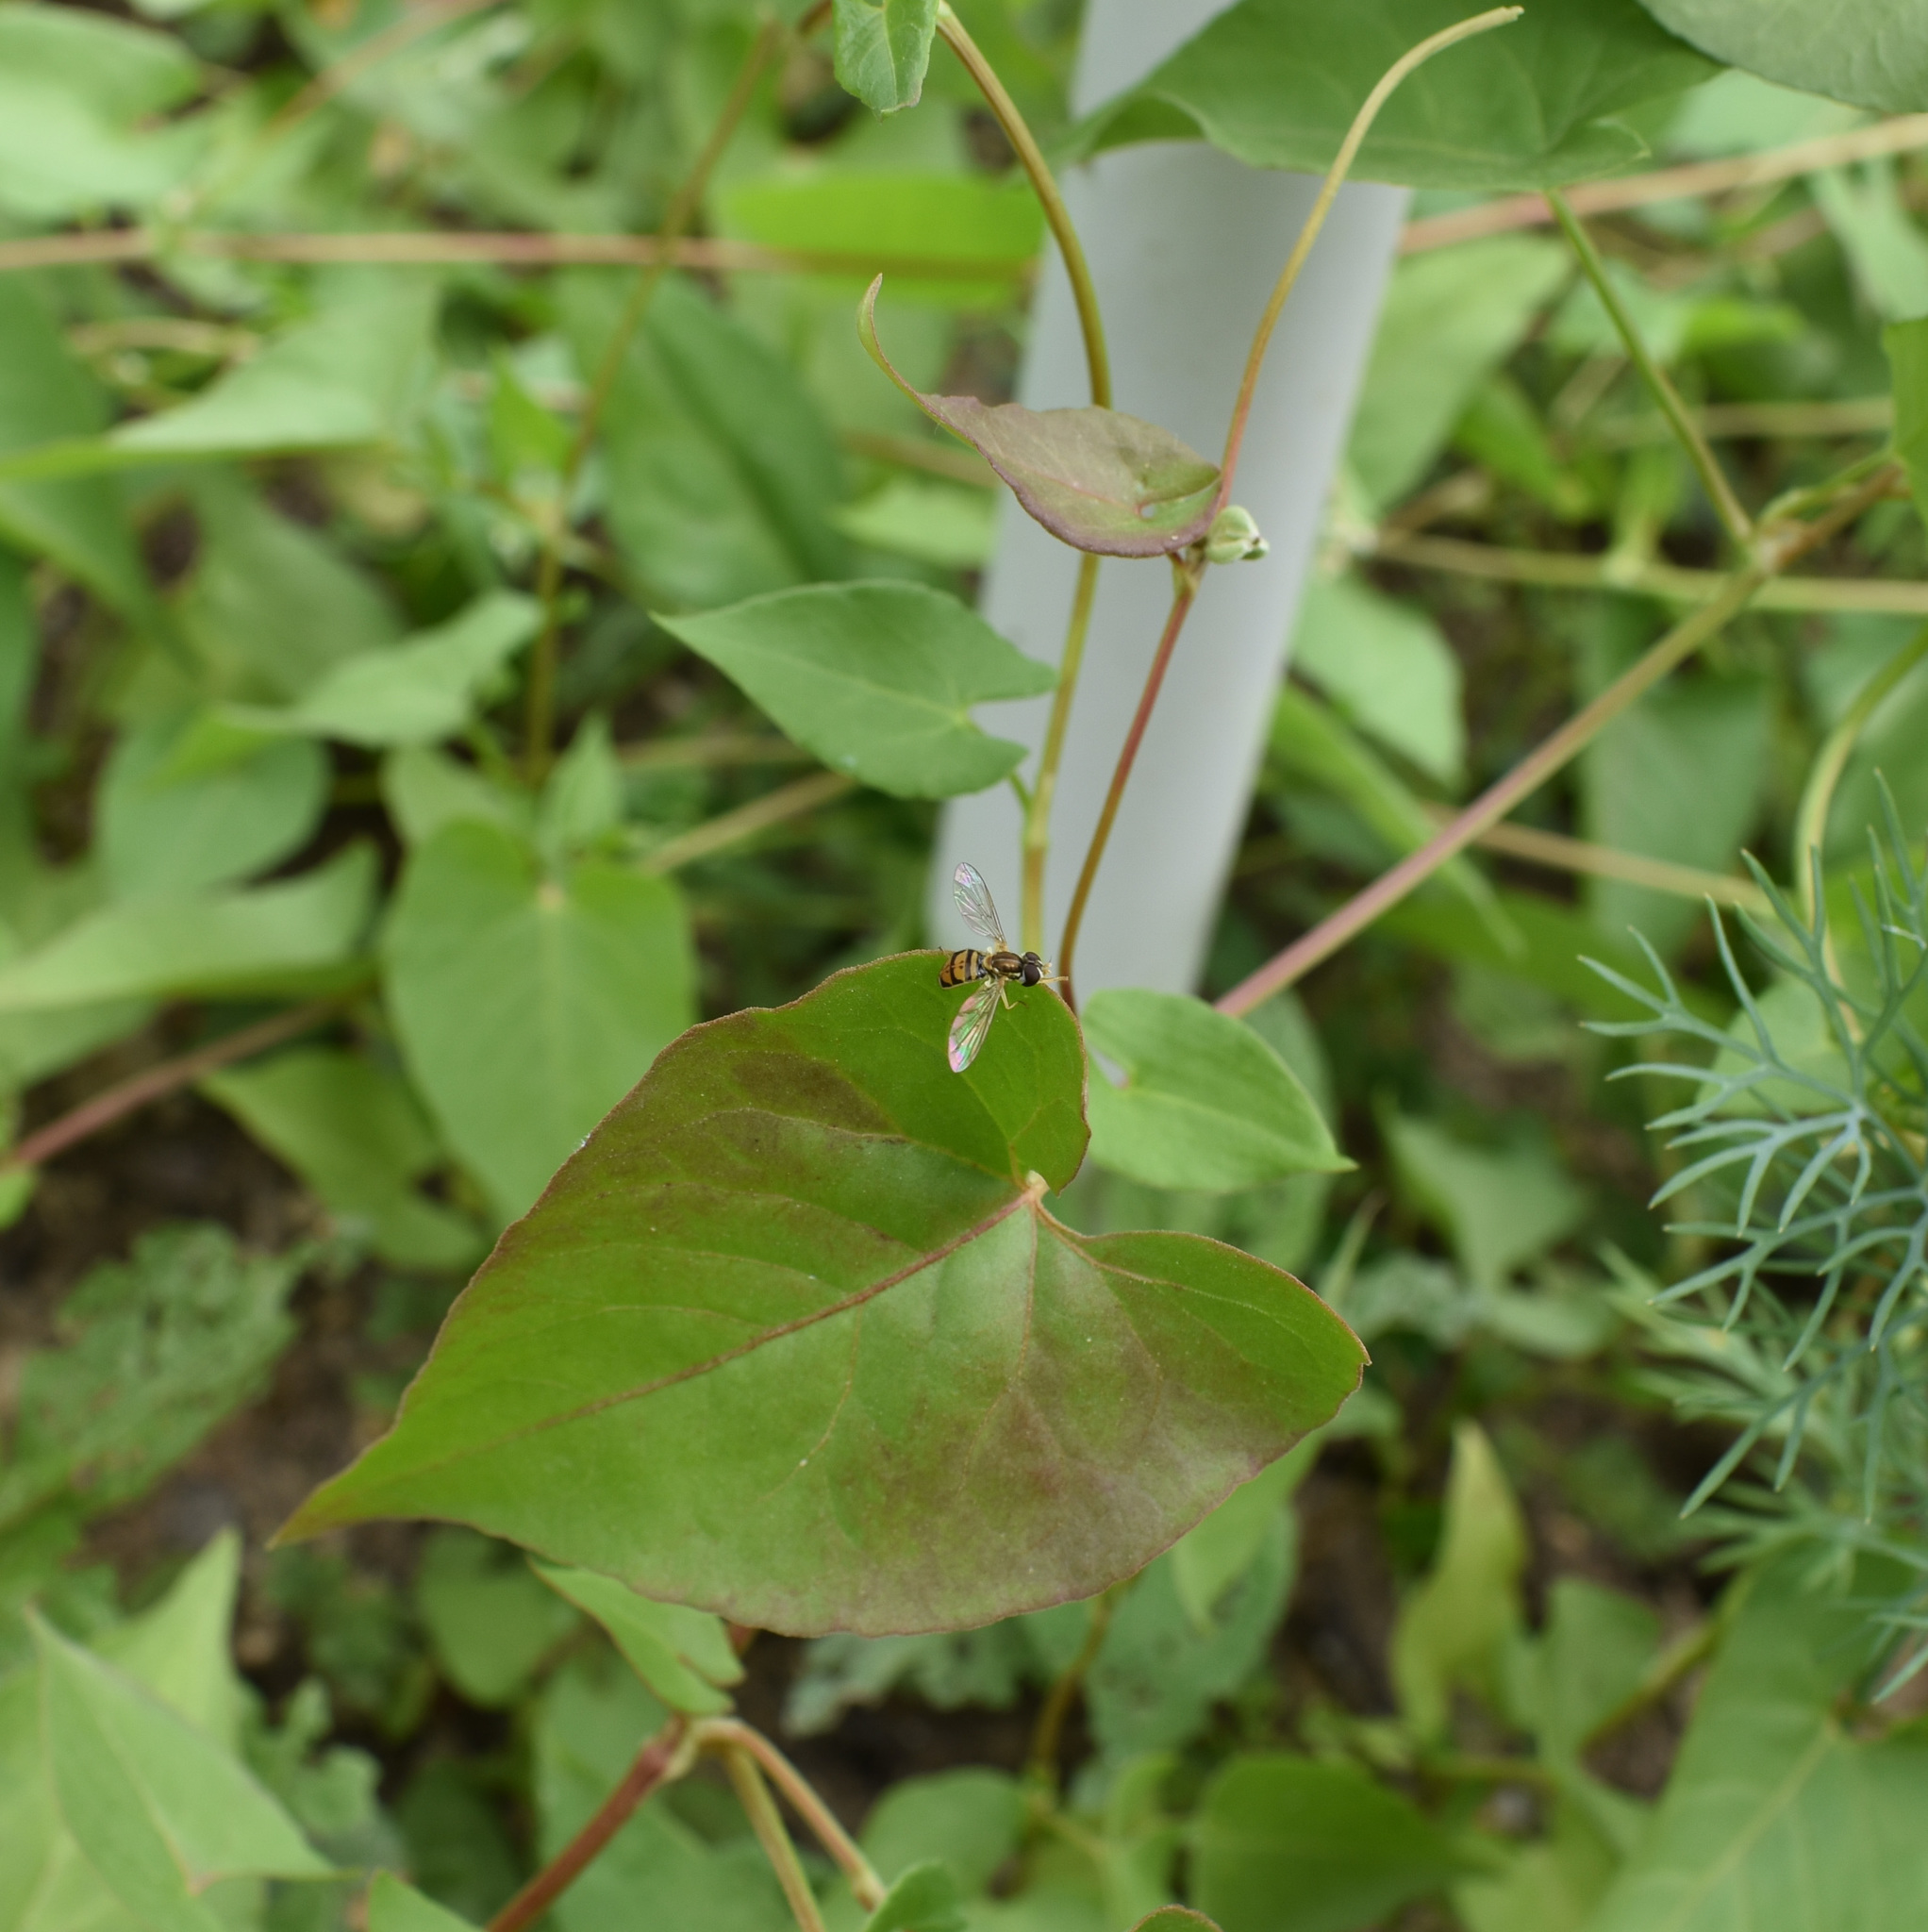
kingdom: Animalia
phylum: Arthropoda
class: Insecta
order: Diptera
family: Syrphidae
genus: Toxomerus
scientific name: Toxomerus marginatus
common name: Syrphid fly
